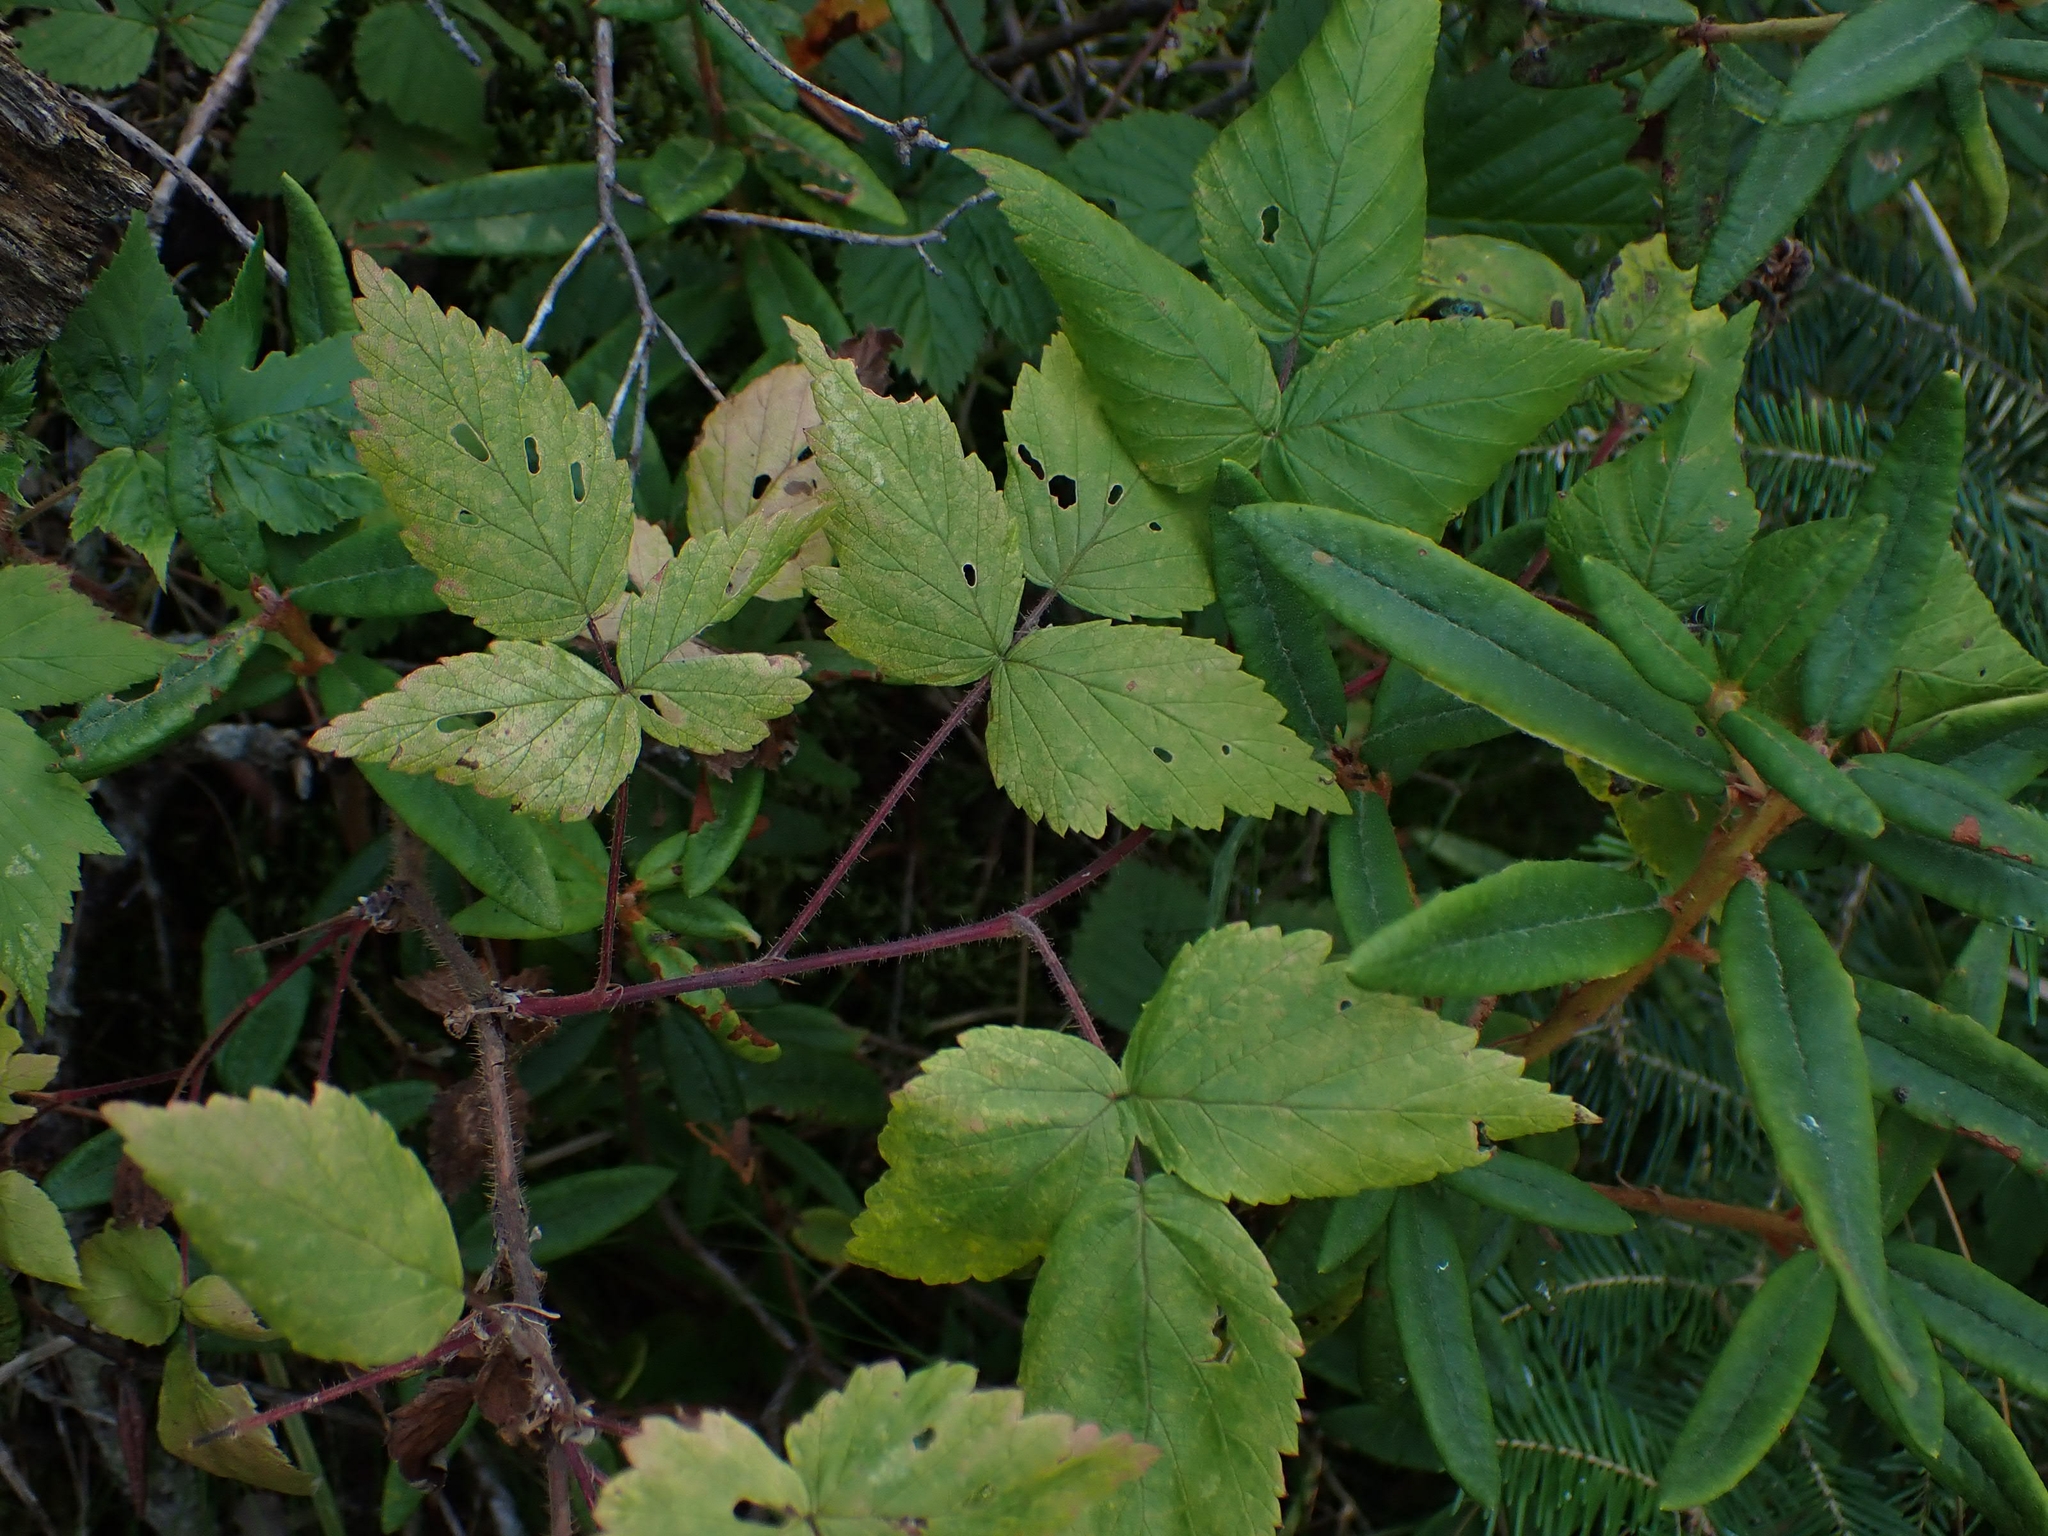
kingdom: Plantae
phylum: Tracheophyta
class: Magnoliopsida
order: Rosales
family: Rosaceae
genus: Rubus
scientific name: Rubus idaeus
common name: Raspberry
